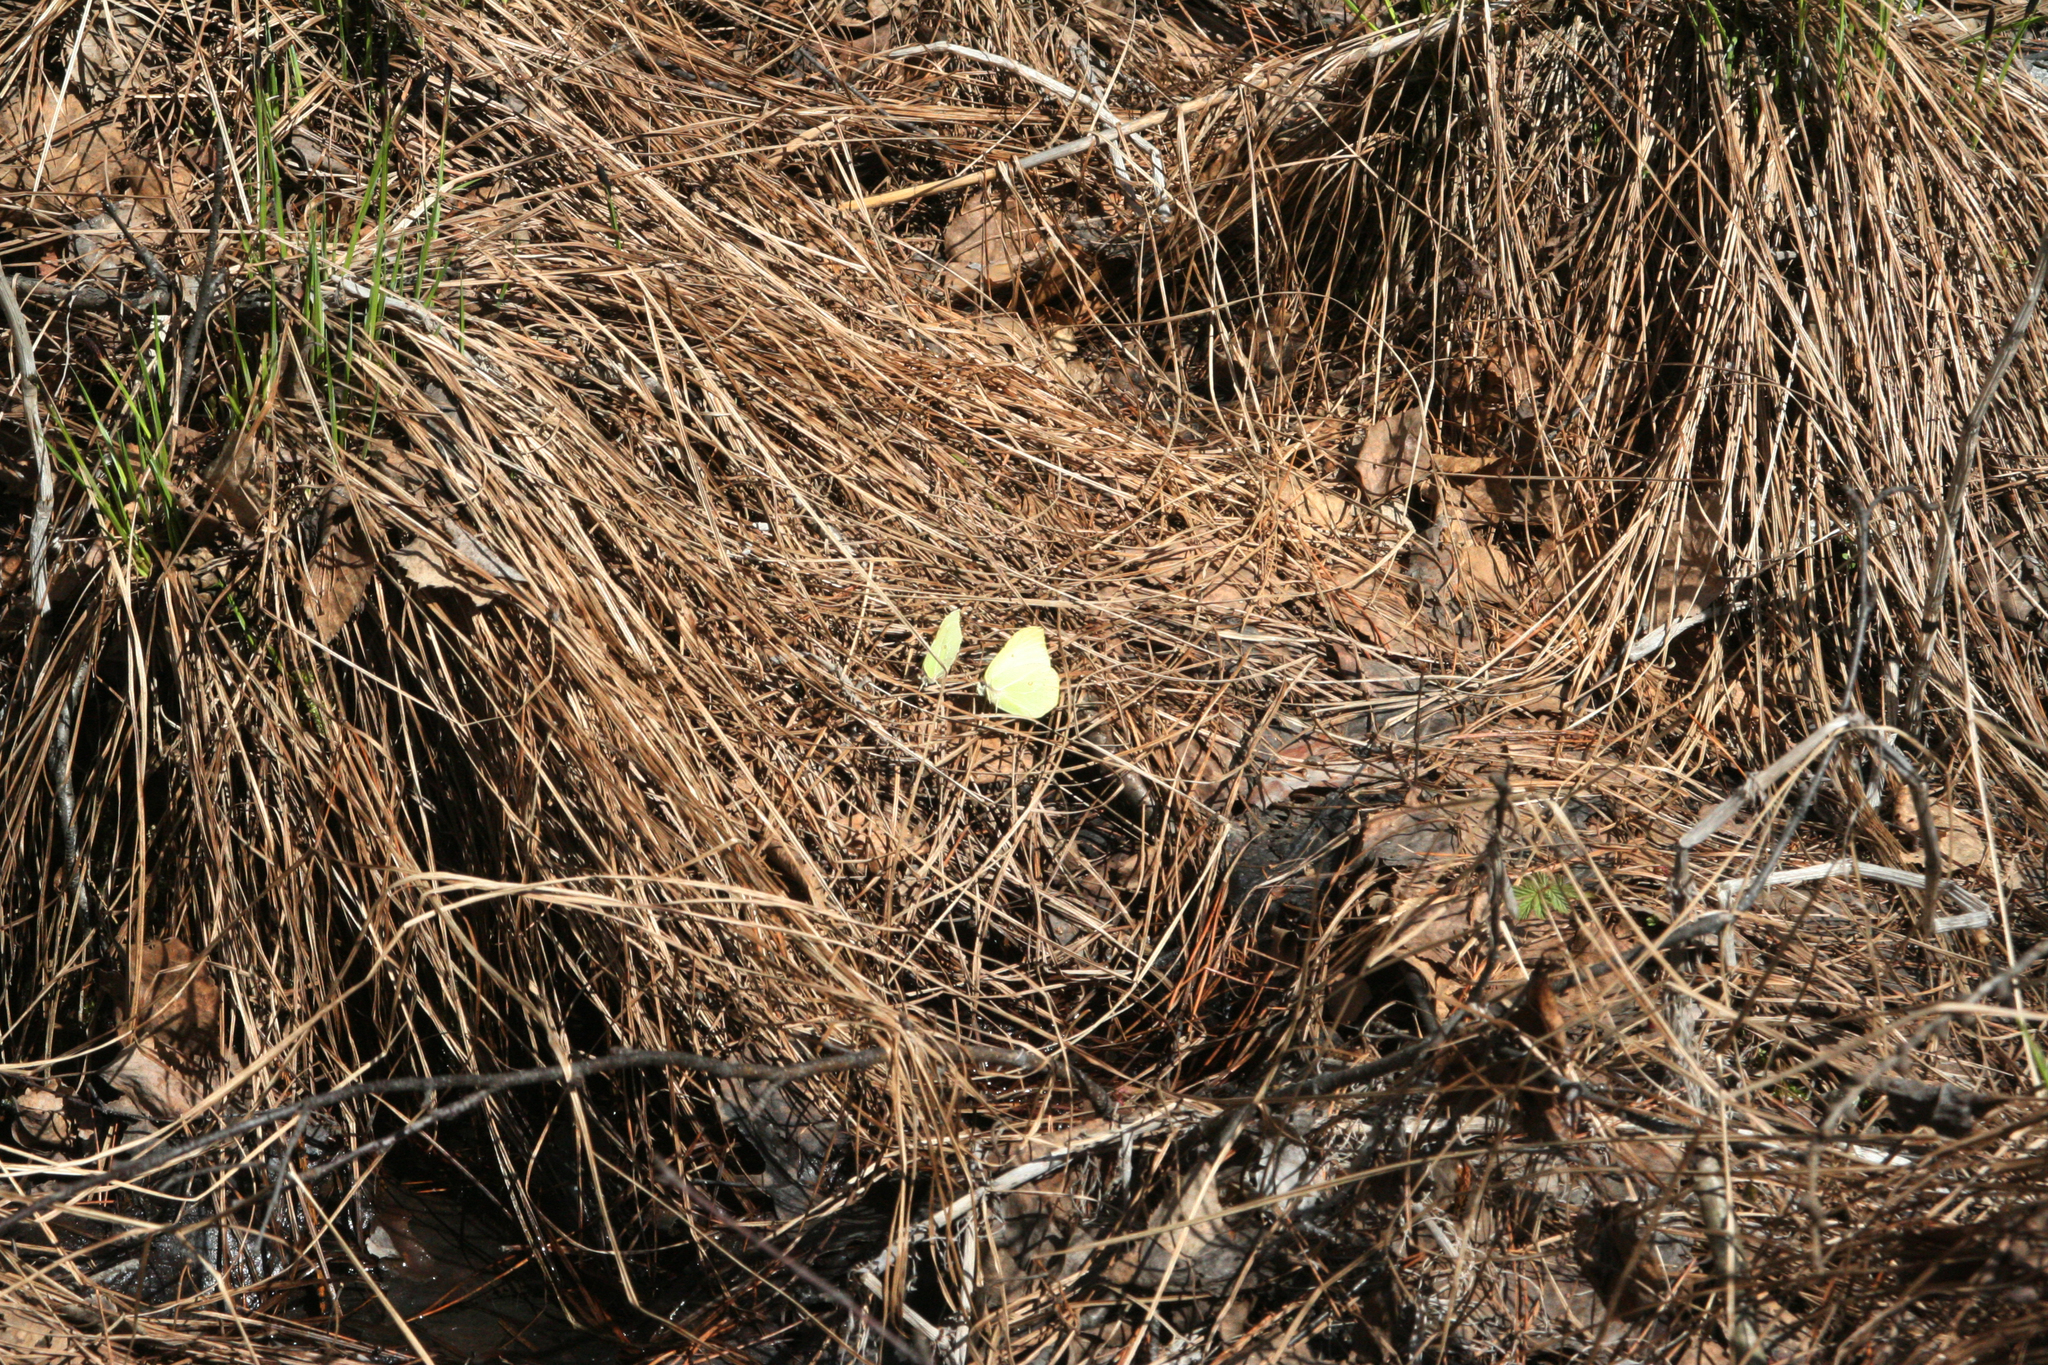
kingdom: Animalia
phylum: Arthropoda
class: Insecta
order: Lepidoptera
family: Pieridae
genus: Gonepteryx
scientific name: Gonepteryx rhamni
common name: Brimstone
